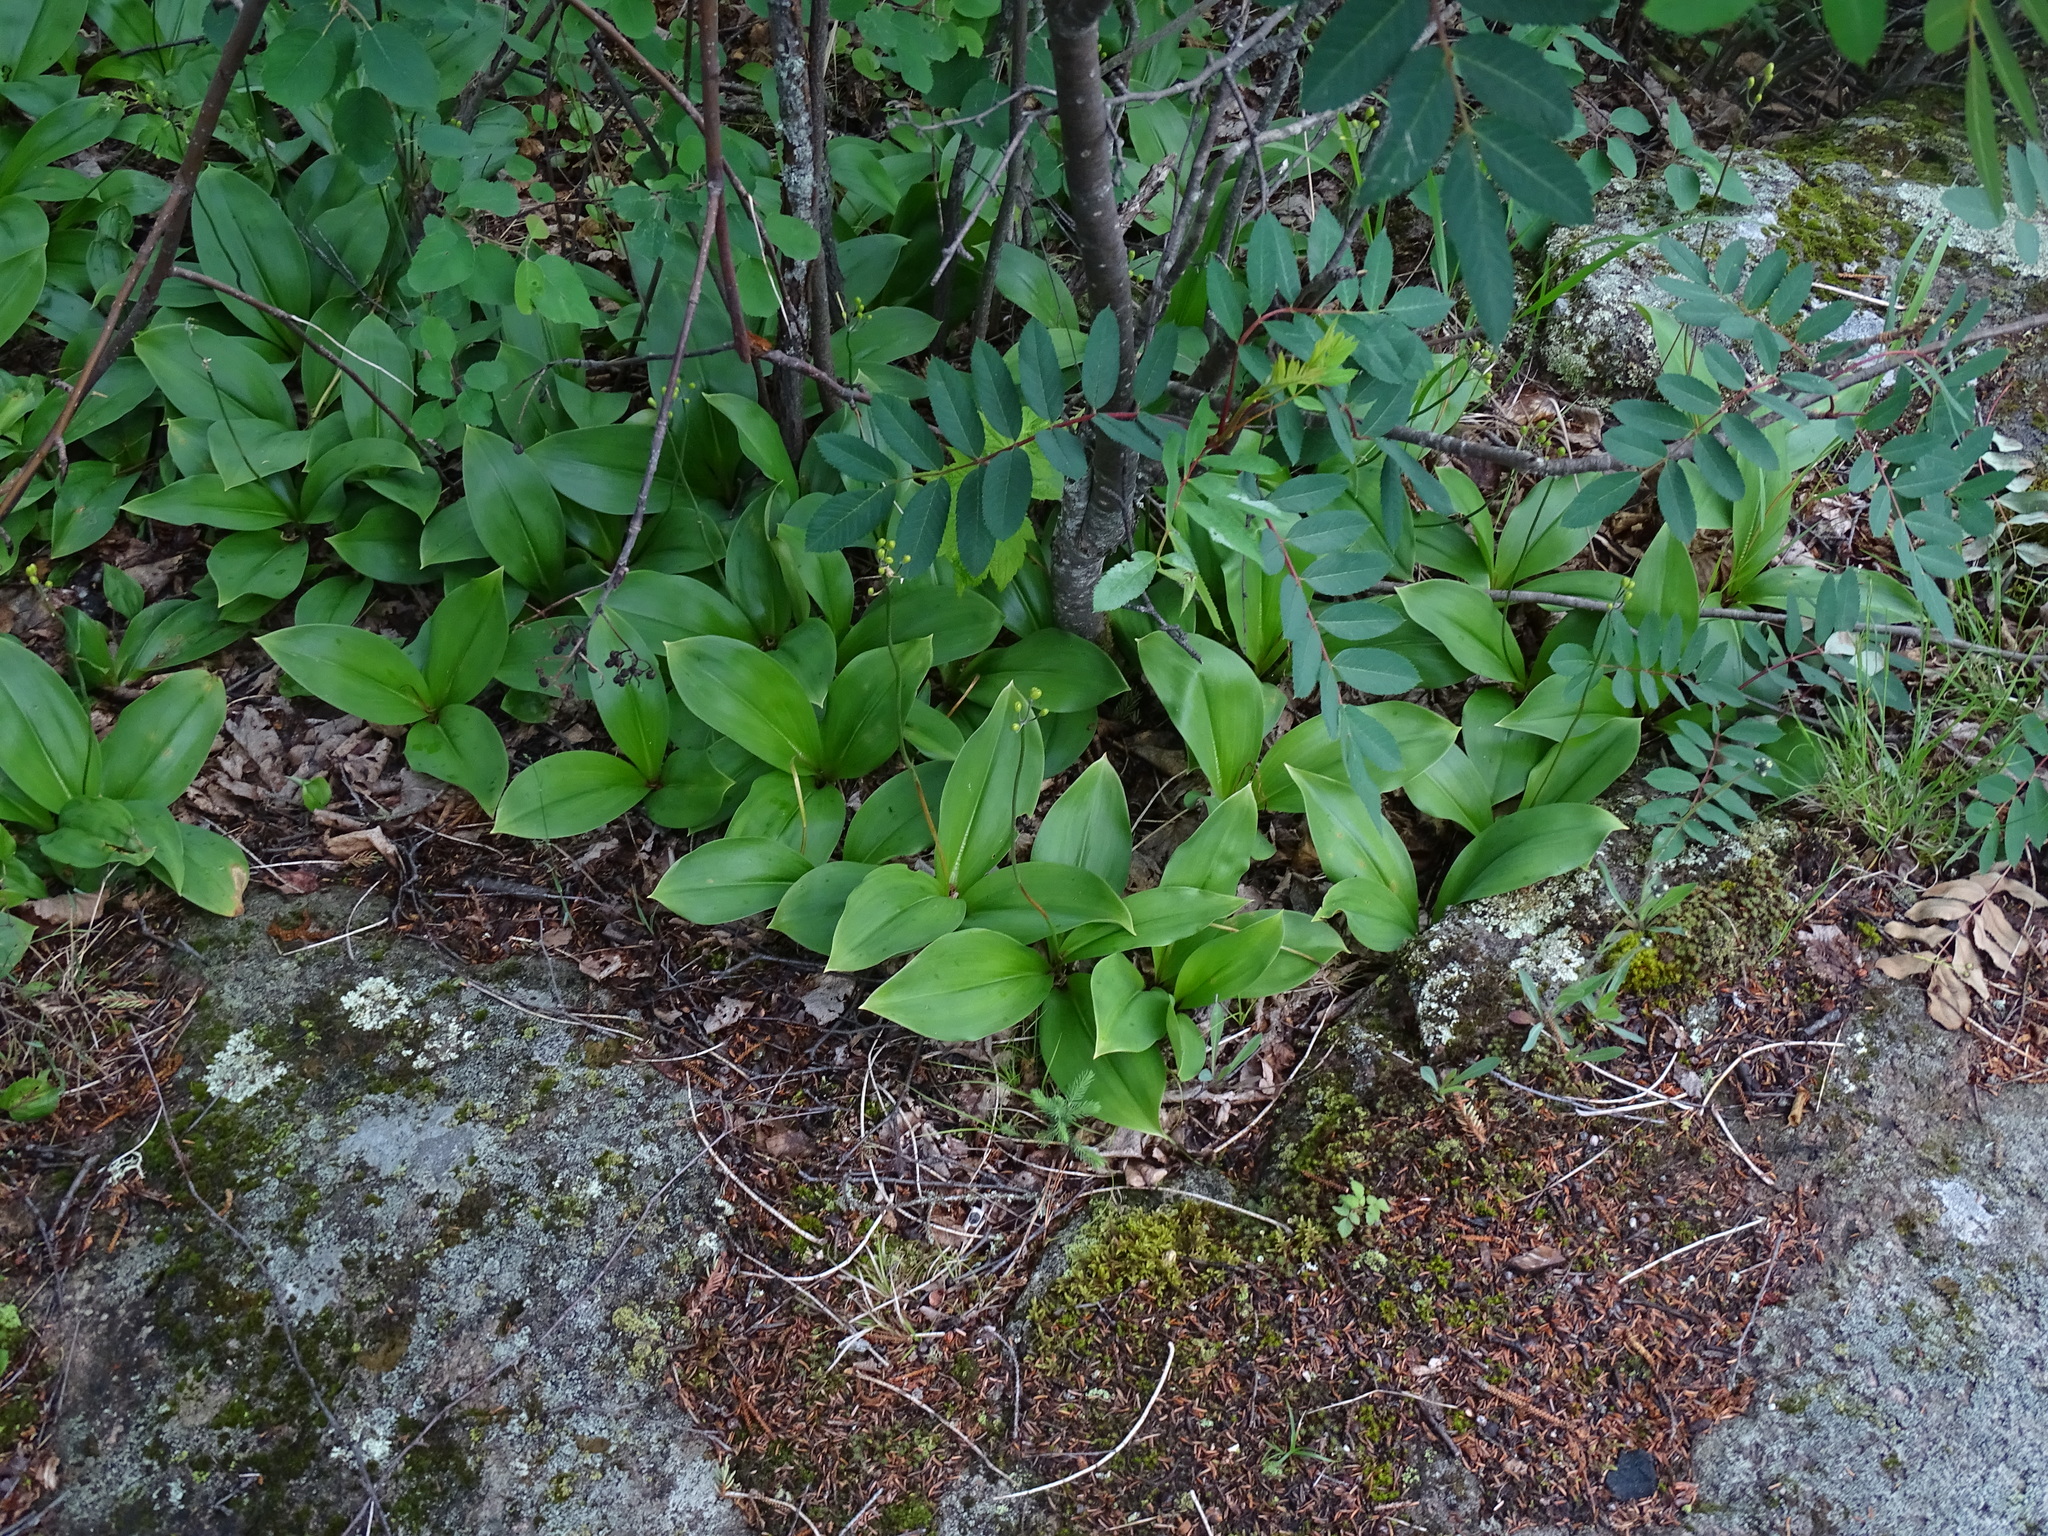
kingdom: Plantae
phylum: Tracheophyta
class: Liliopsida
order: Liliales
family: Liliaceae
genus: Clintonia
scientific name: Clintonia borealis
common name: Yellow clintonia
